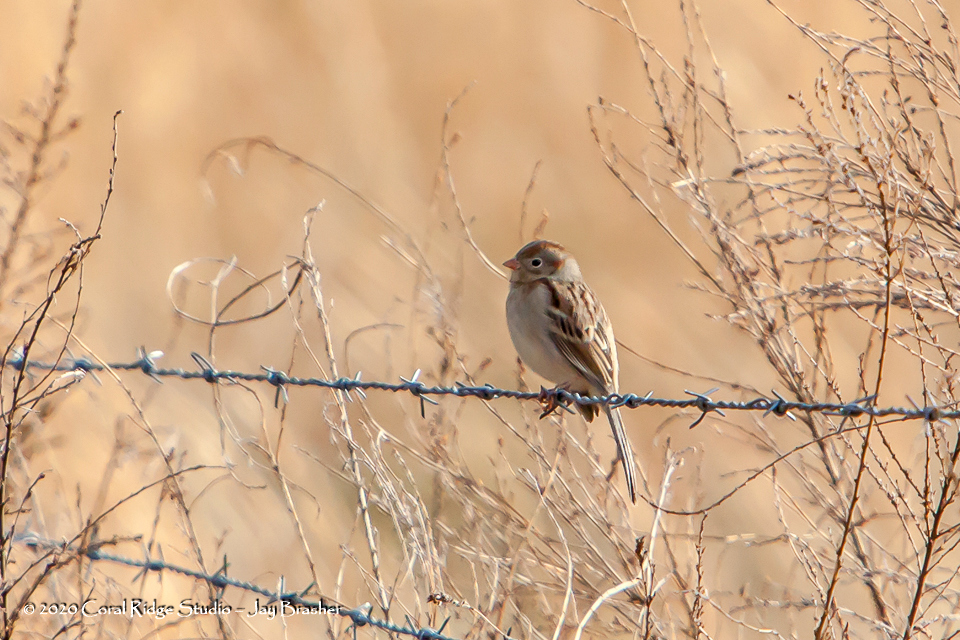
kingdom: Animalia
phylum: Chordata
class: Aves
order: Passeriformes
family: Passerellidae
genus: Spizella
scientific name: Spizella pusilla
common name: Field sparrow
